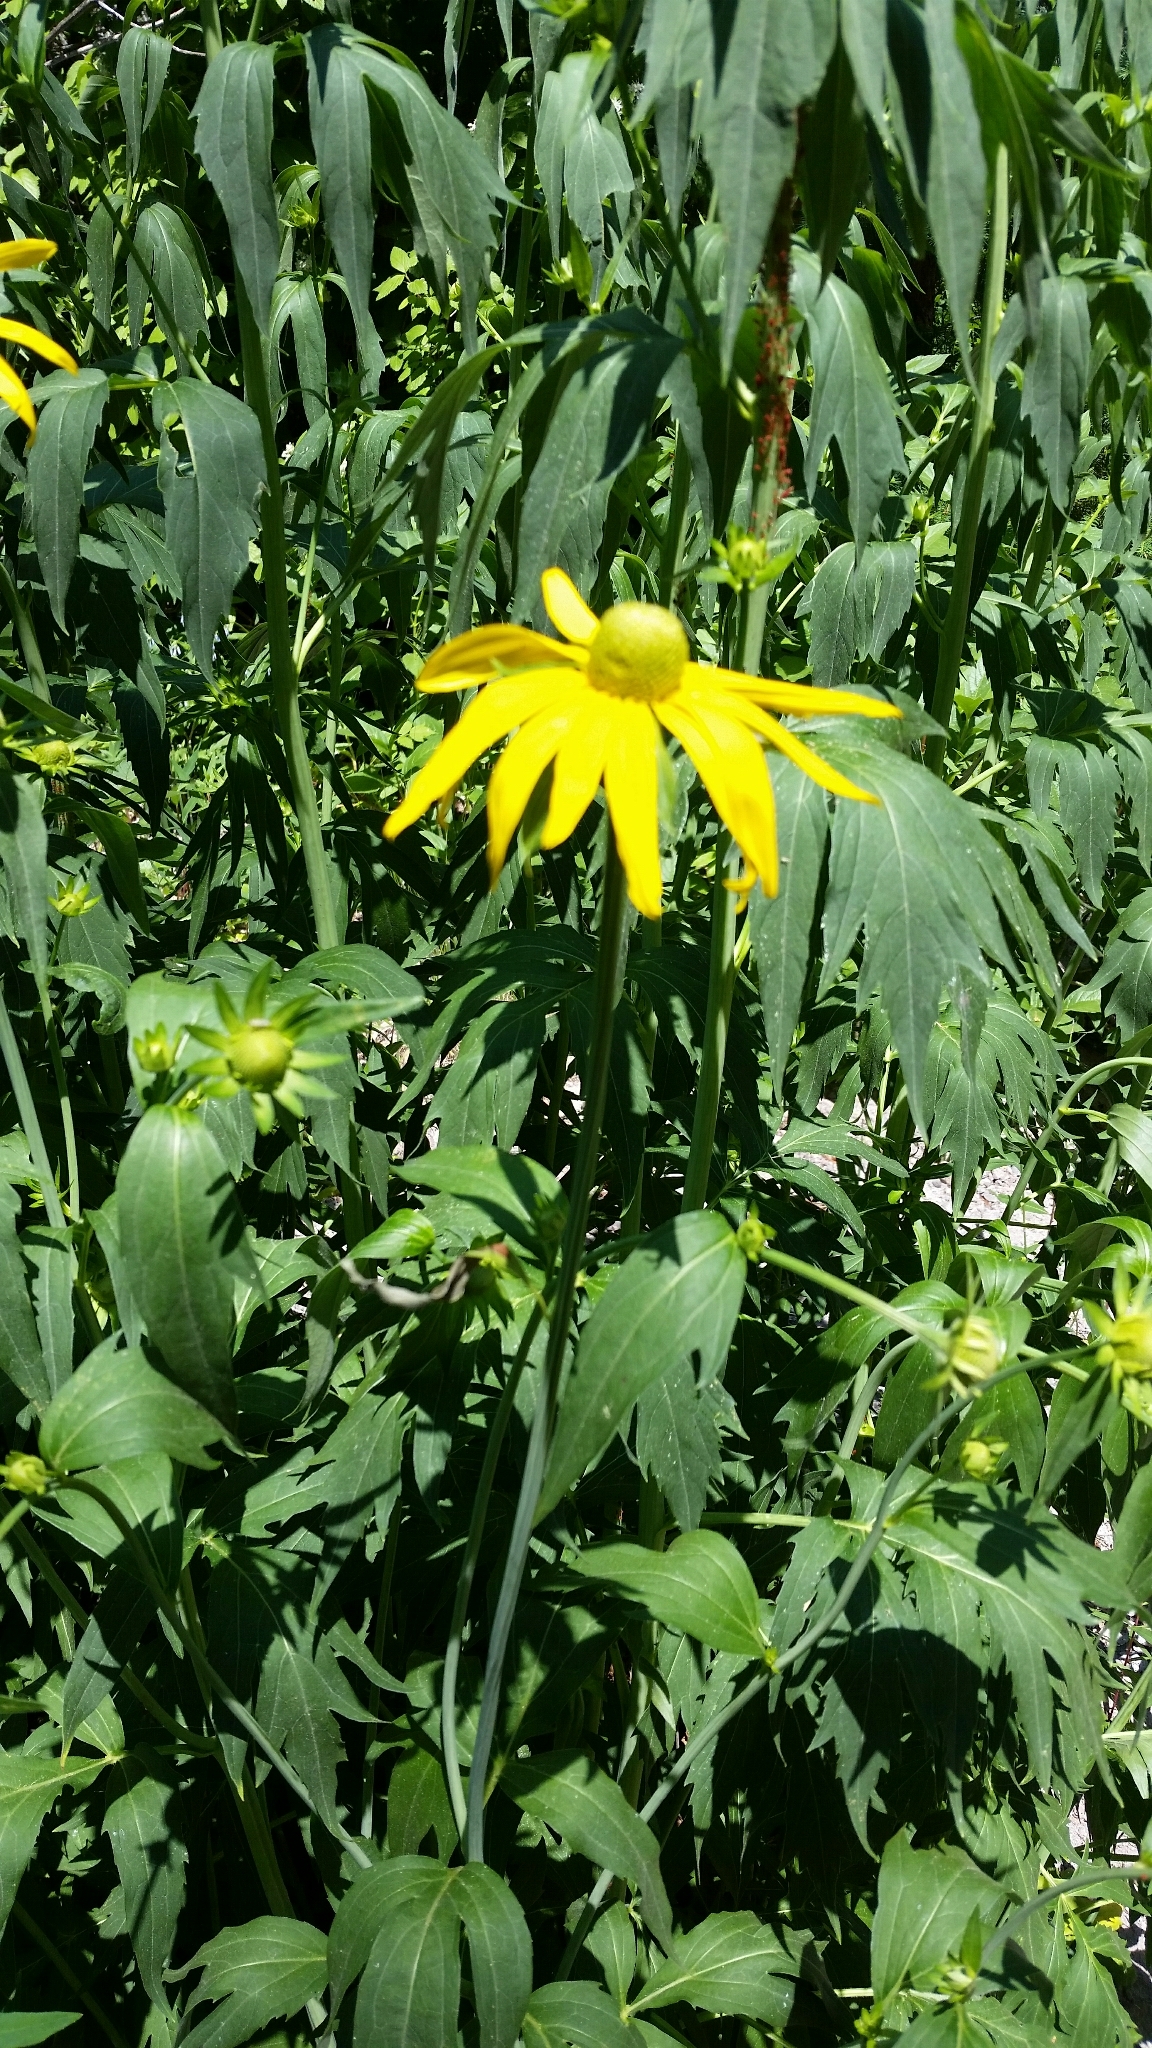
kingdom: Plantae
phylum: Tracheophyta
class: Magnoliopsida
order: Asterales
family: Asteraceae
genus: Rudbeckia
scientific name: Rudbeckia laciniata
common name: Coneflower
